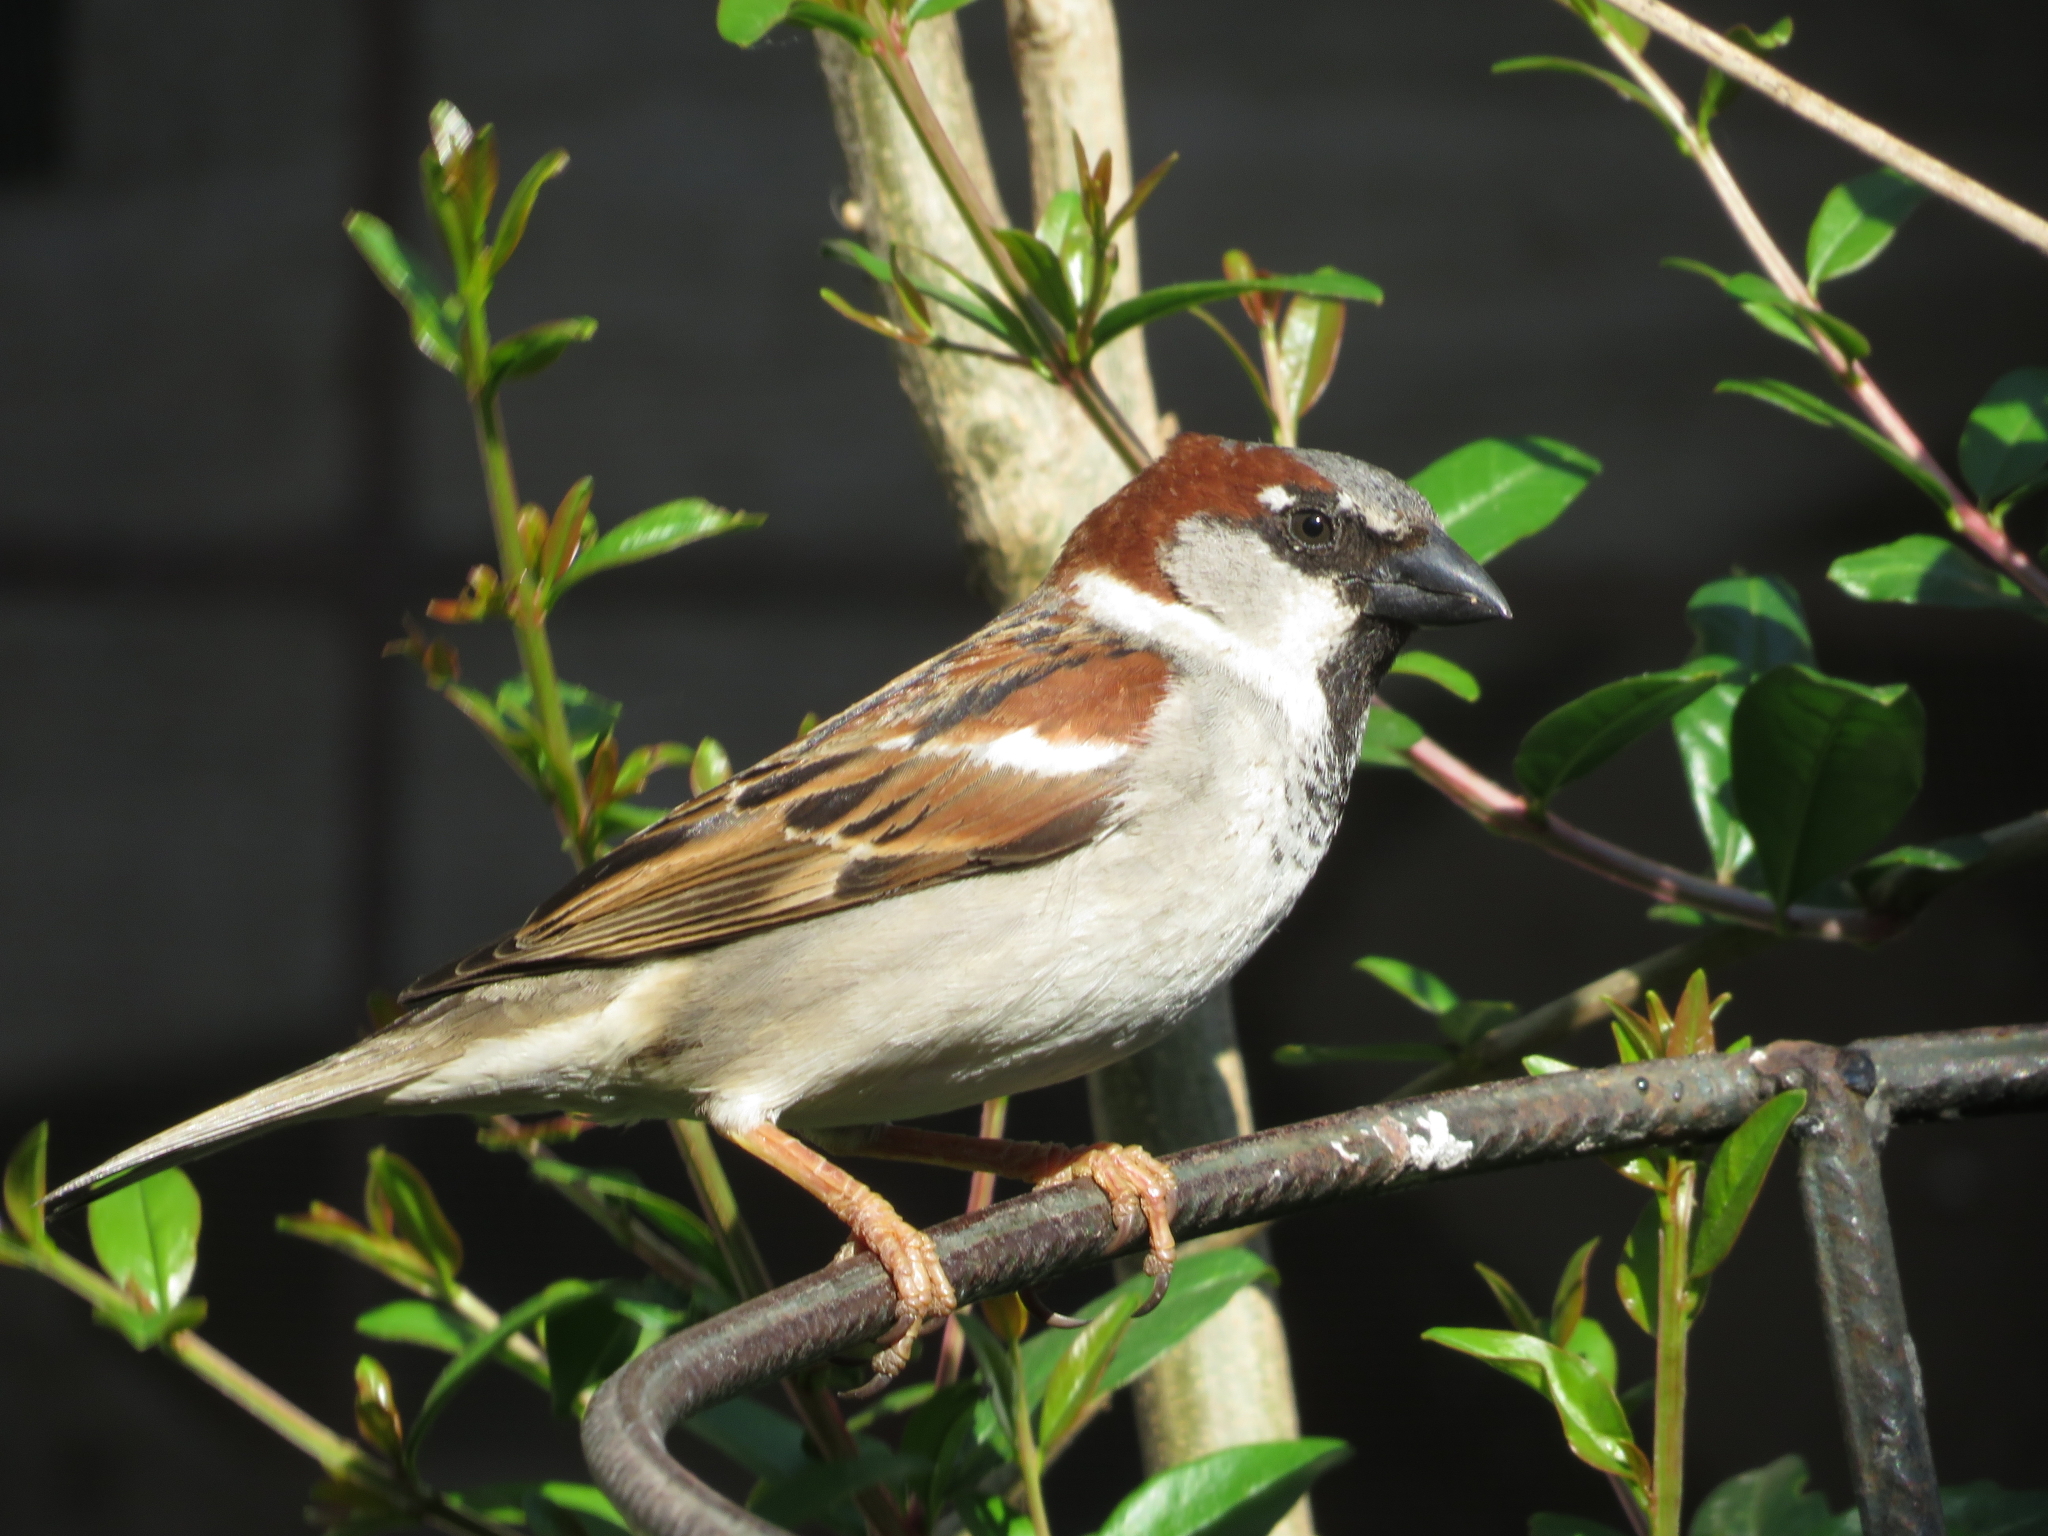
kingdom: Animalia
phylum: Chordata
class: Aves
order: Passeriformes
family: Passeridae
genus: Passer
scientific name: Passer domesticus
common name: House sparrow
